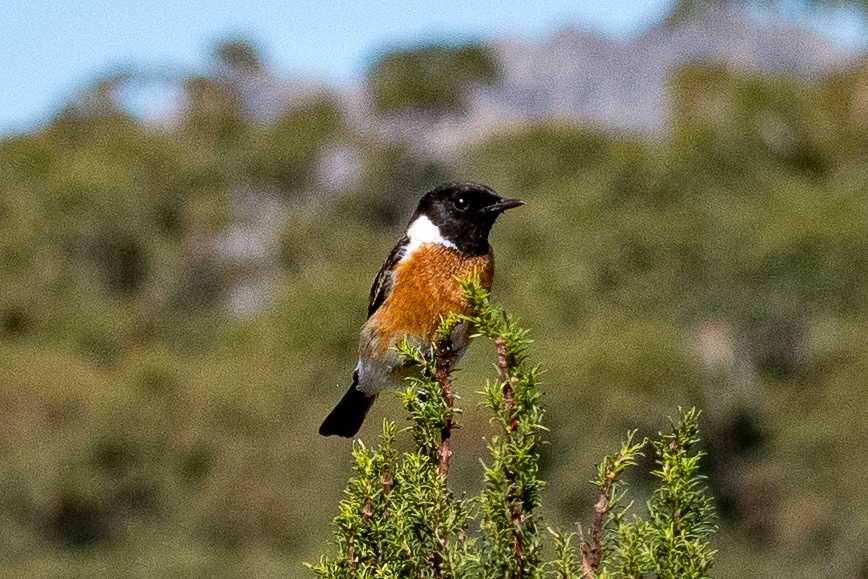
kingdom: Animalia
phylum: Chordata
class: Aves
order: Passeriformes
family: Muscicapidae
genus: Saxicola
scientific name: Saxicola torquatus
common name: African stonechat
